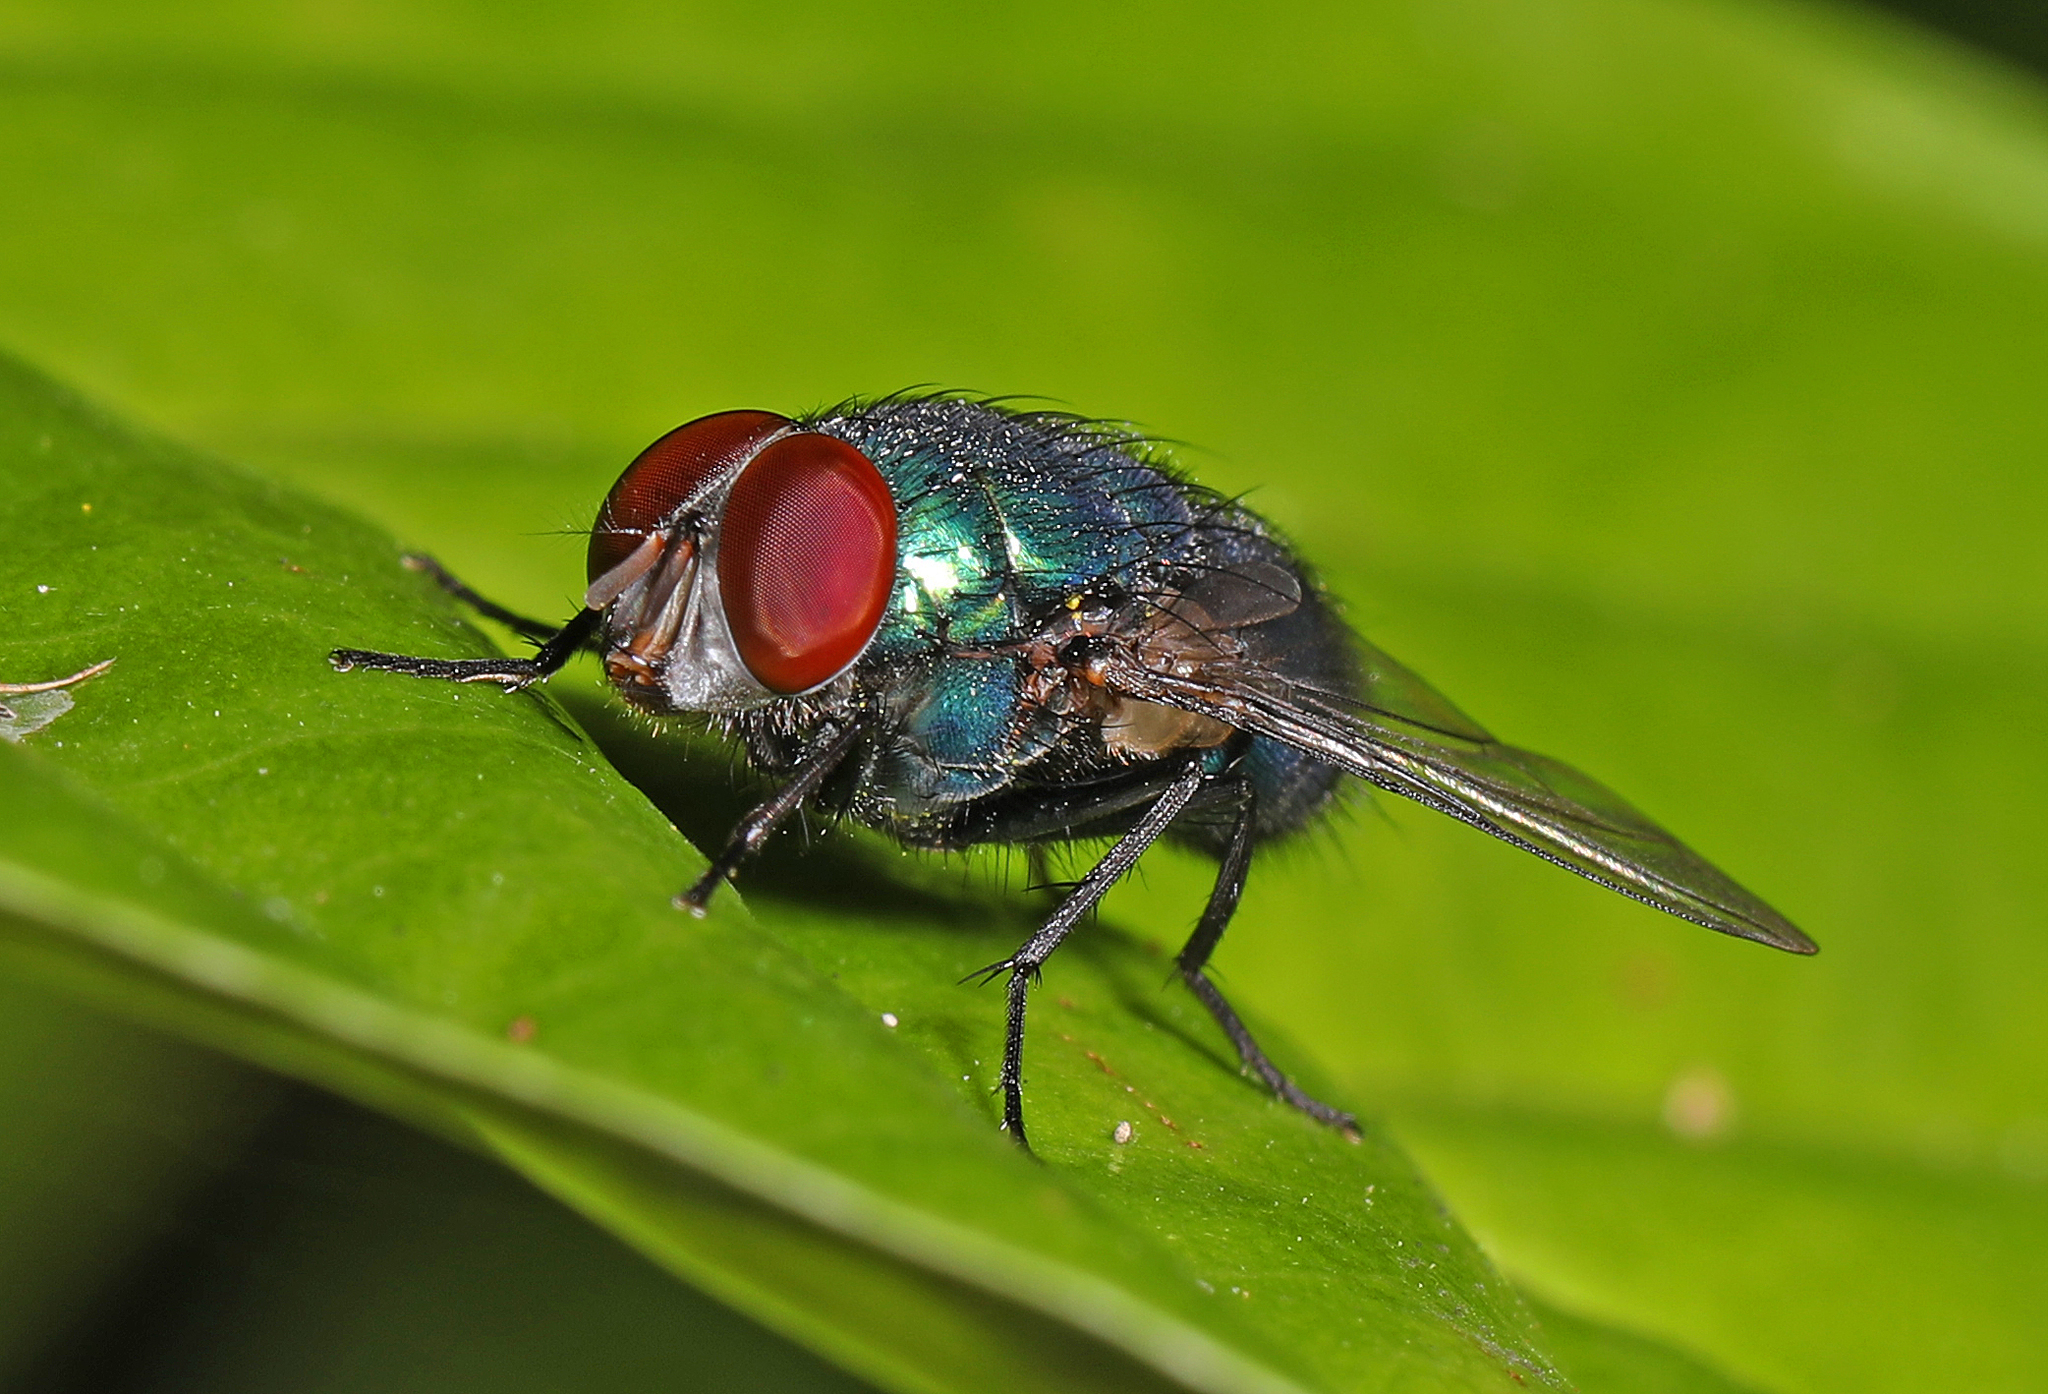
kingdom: Animalia
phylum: Arthropoda
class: Insecta
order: Diptera
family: Calliphoridae
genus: Lucilia
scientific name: Lucilia eximia
